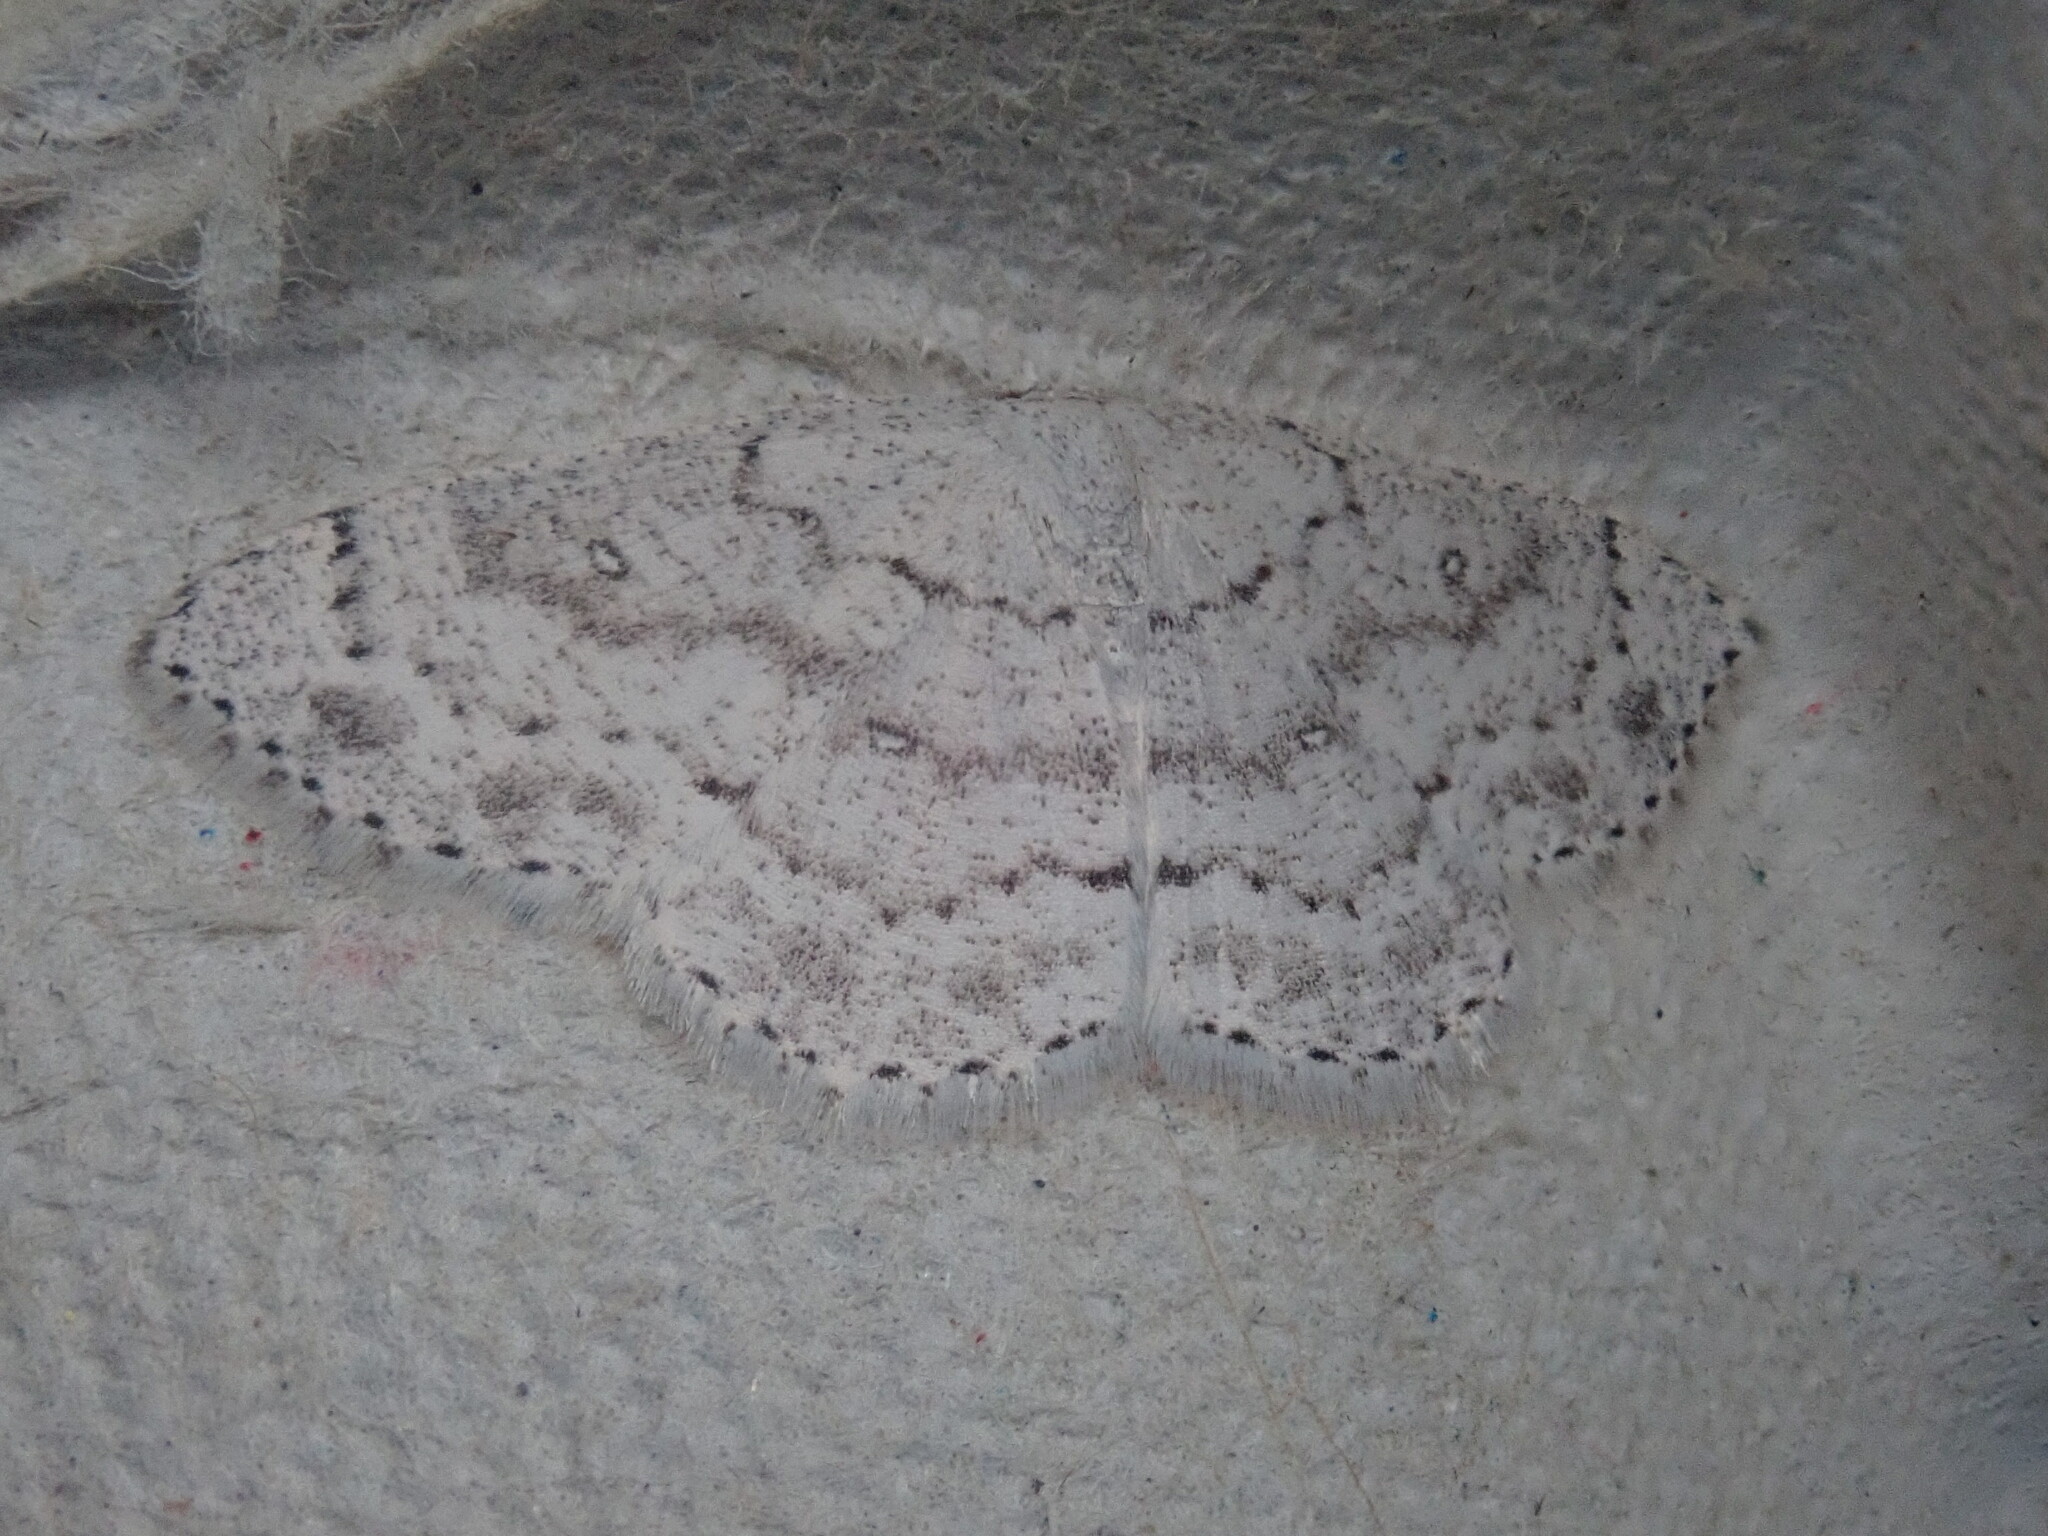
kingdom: Animalia
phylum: Arthropoda
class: Insecta
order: Lepidoptera
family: Geometridae
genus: Cyclophora
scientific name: Cyclophora pendulinaria
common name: Sweet fern geometer
